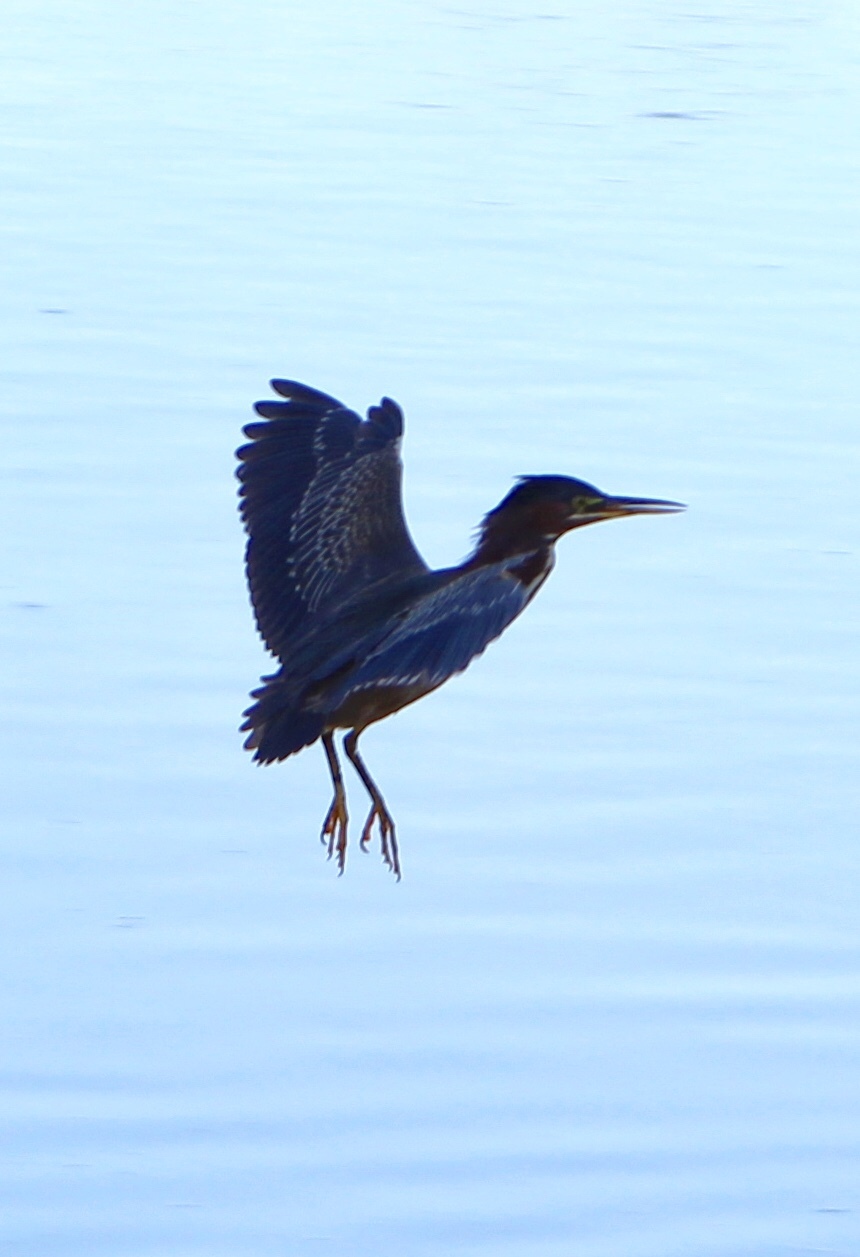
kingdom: Animalia
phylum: Chordata
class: Aves
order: Pelecaniformes
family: Ardeidae
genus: Butorides
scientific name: Butorides virescens
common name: Green heron
